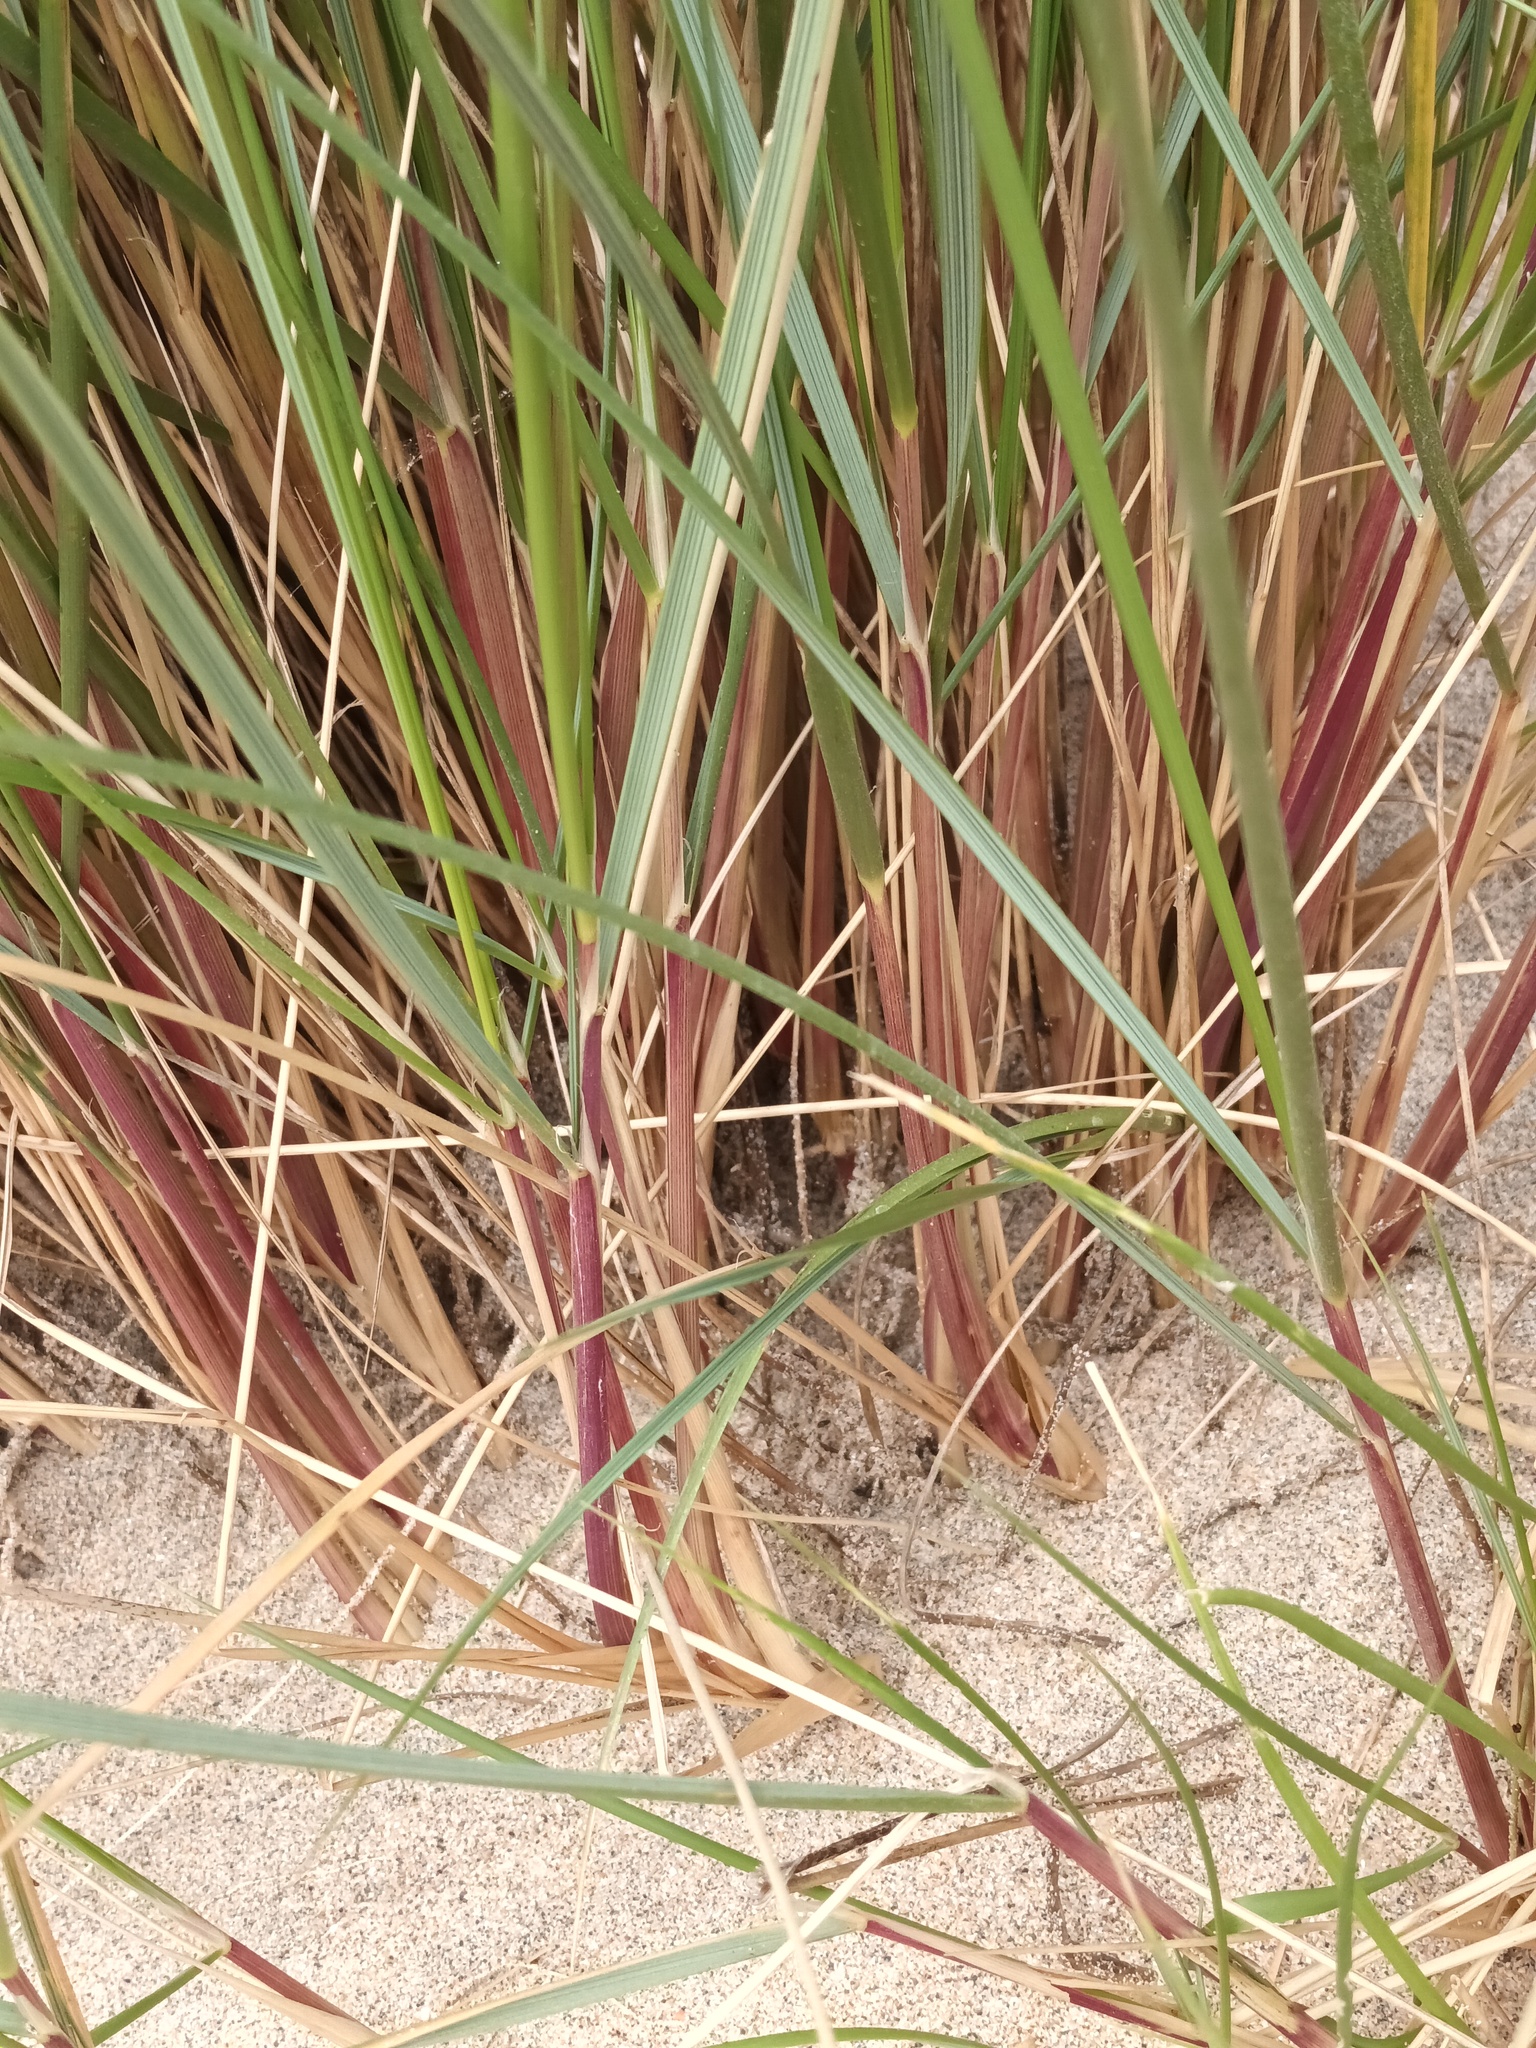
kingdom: Plantae
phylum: Tracheophyta
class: Liliopsida
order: Poales
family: Poaceae
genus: Calamagrostis
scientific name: Calamagrostis arenaria
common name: European beachgrass
